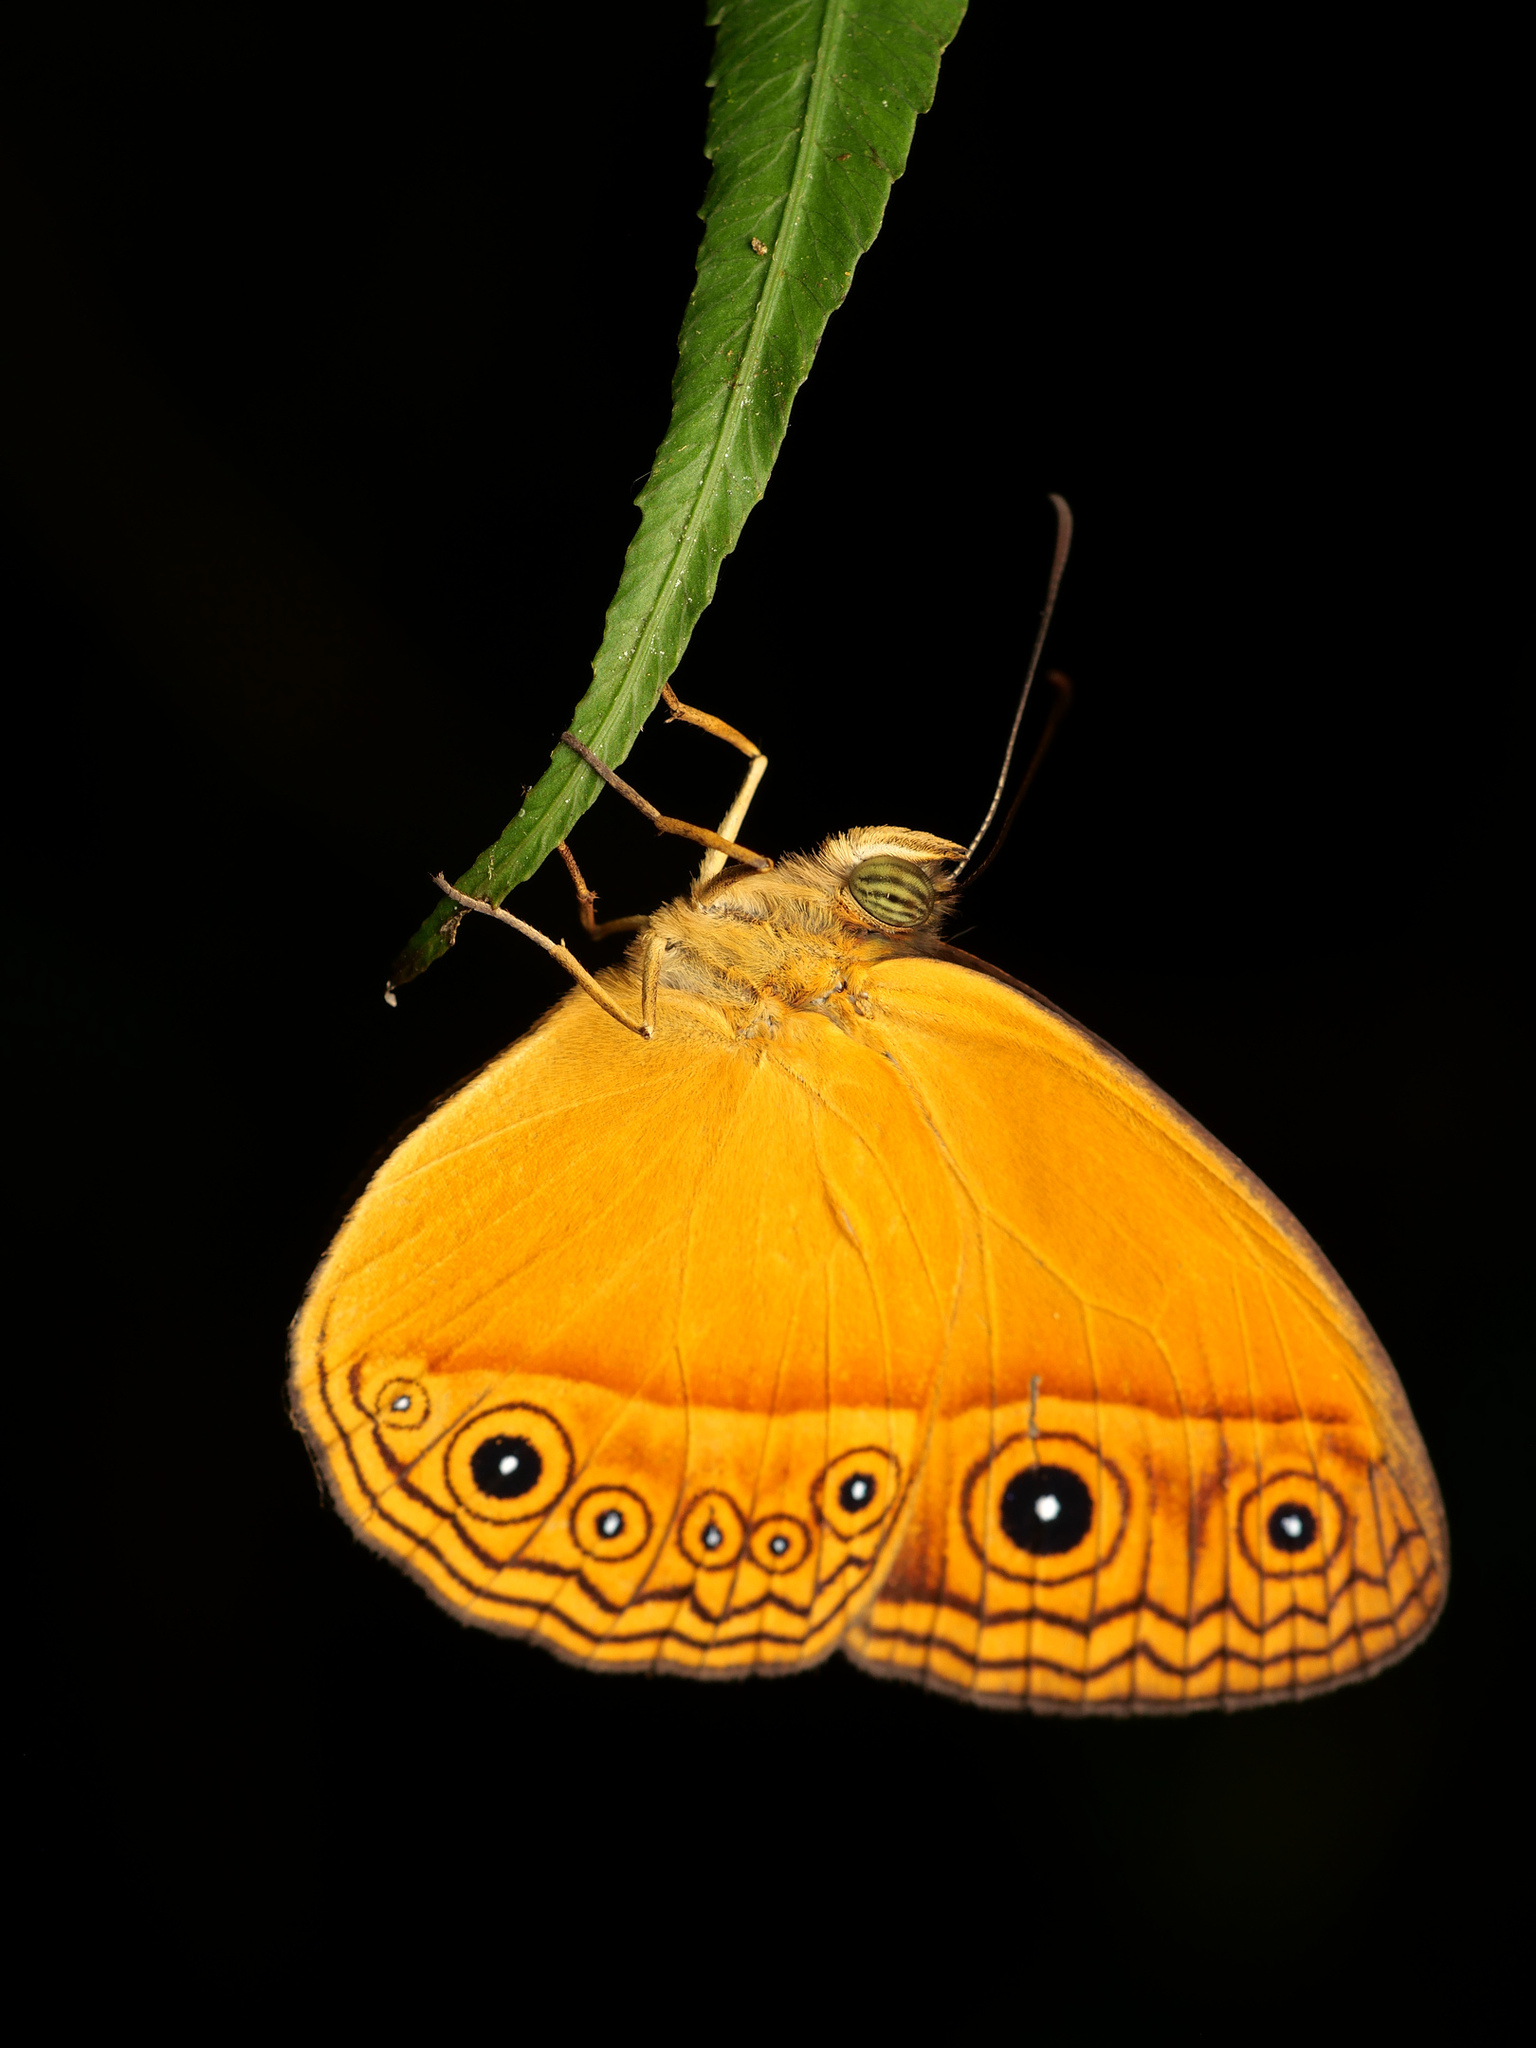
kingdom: Animalia
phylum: Arthropoda
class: Insecta
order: Lepidoptera
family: Nymphalidae
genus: Mycalesis
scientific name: Mycalesis phidon
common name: Hewitson's bushbrown
